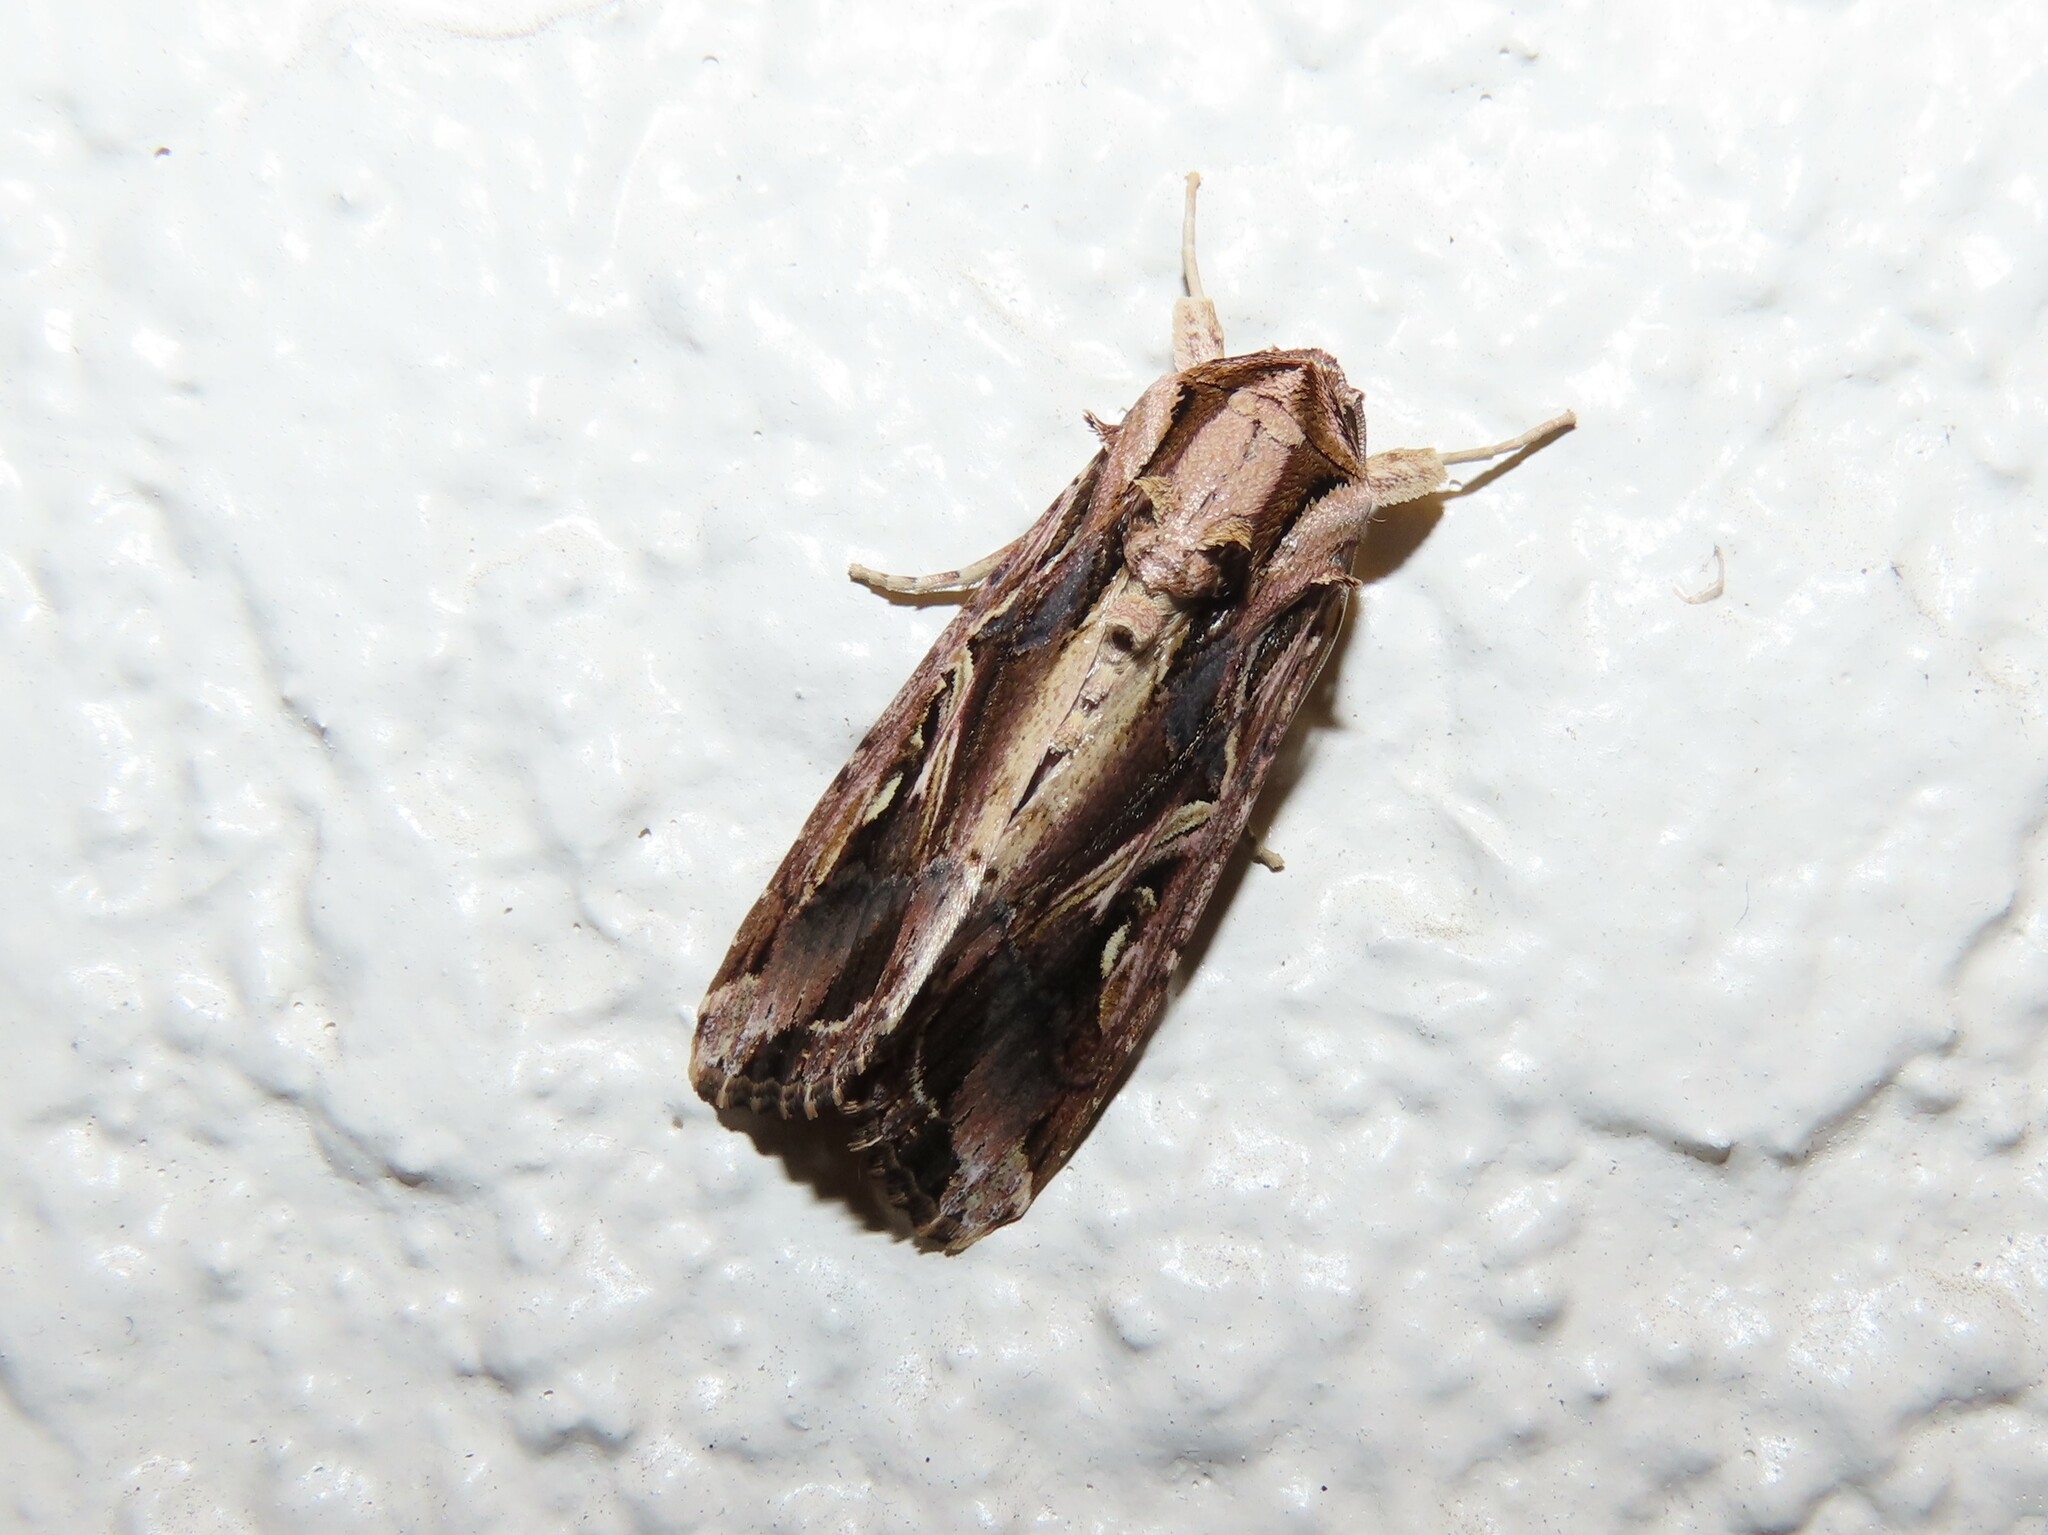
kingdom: Animalia
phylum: Arthropoda
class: Insecta
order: Lepidoptera
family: Noctuidae
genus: Spodoptera
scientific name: Spodoptera dolichos
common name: Sweetpotato armyworm
